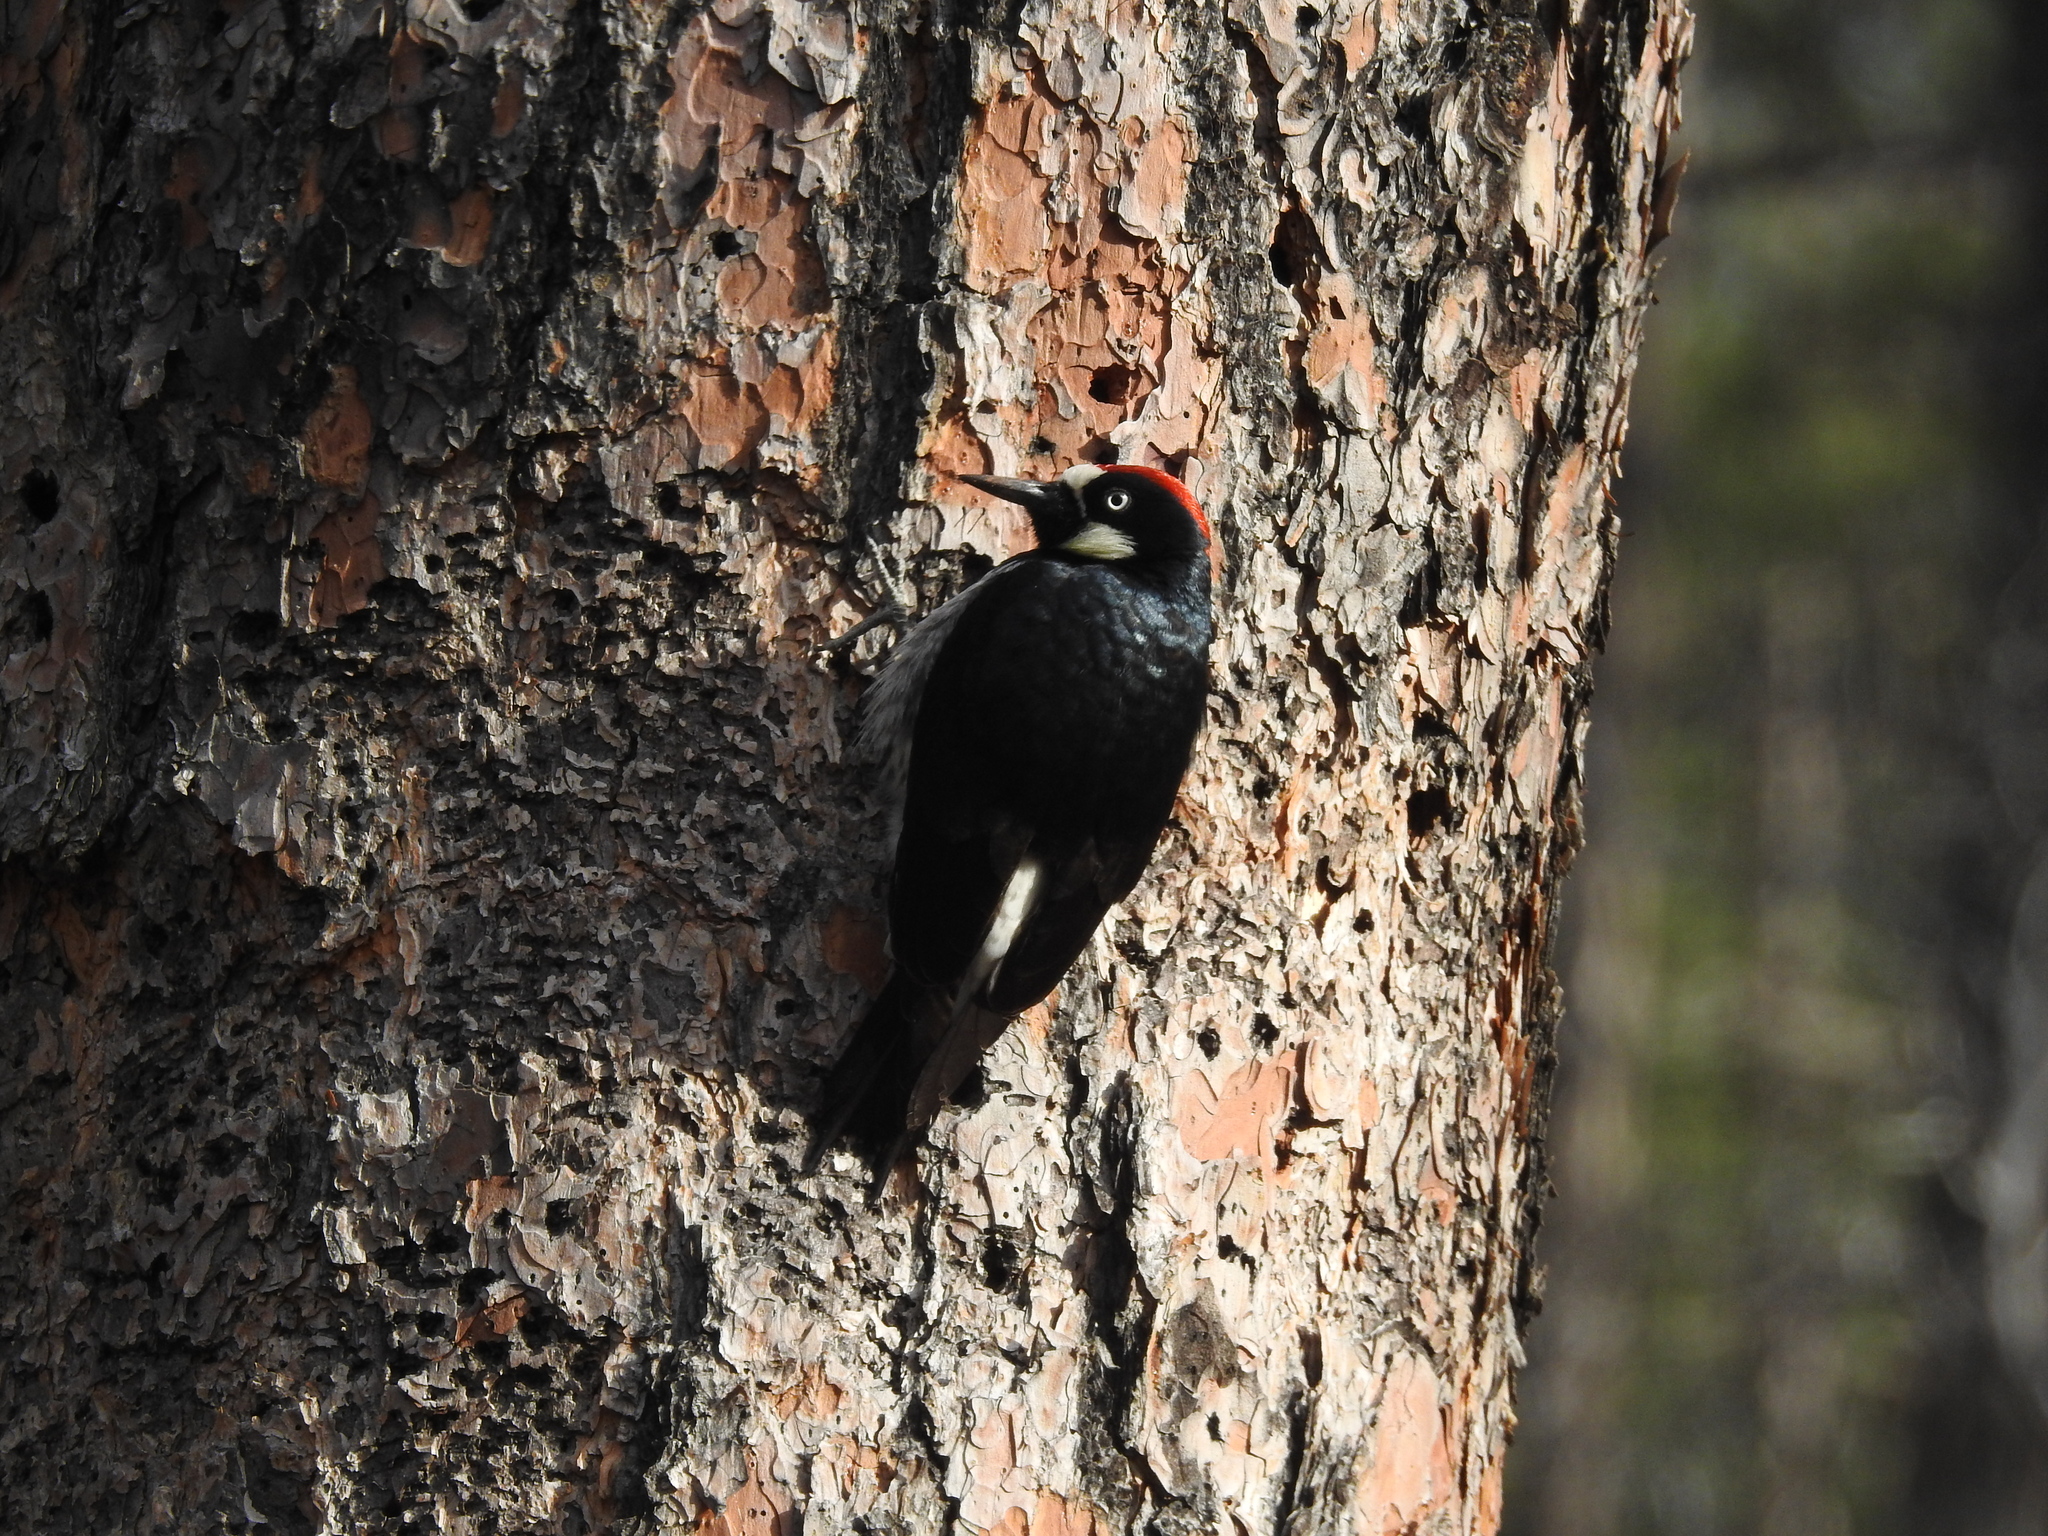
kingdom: Animalia
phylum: Chordata
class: Aves
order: Piciformes
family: Picidae
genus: Melanerpes
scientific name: Melanerpes formicivorus
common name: Acorn woodpecker
